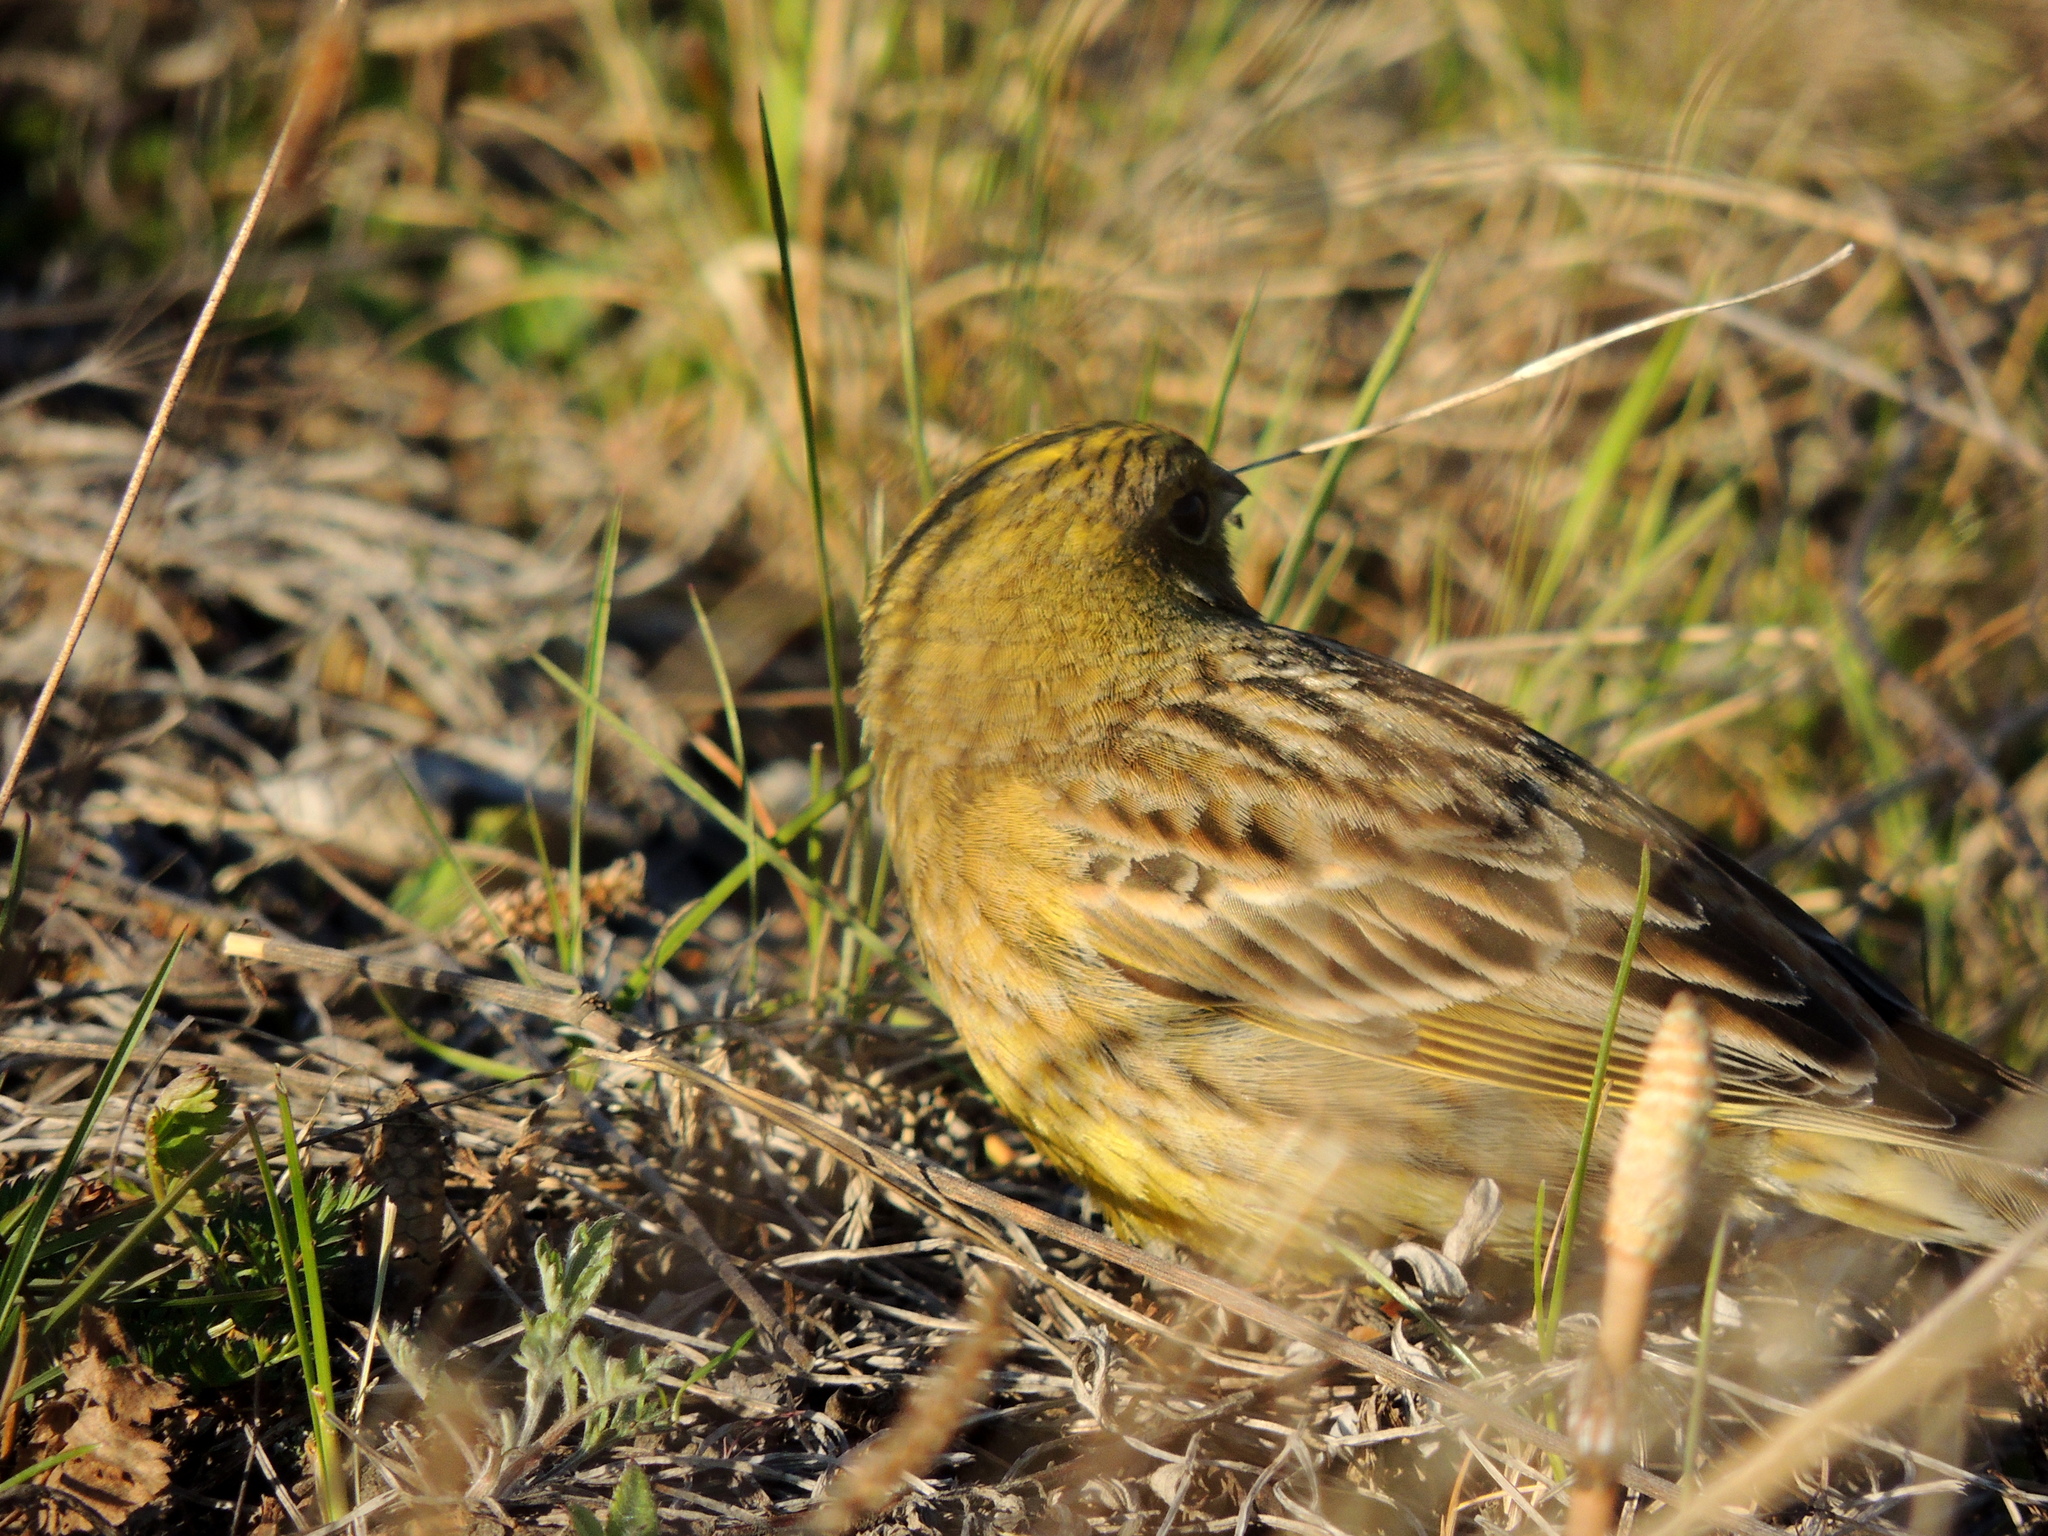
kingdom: Animalia
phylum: Chordata
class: Aves
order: Passeriformes
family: Emberizidae
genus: Emberiza
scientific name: Emberiza citrinella
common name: Yellowhammer
